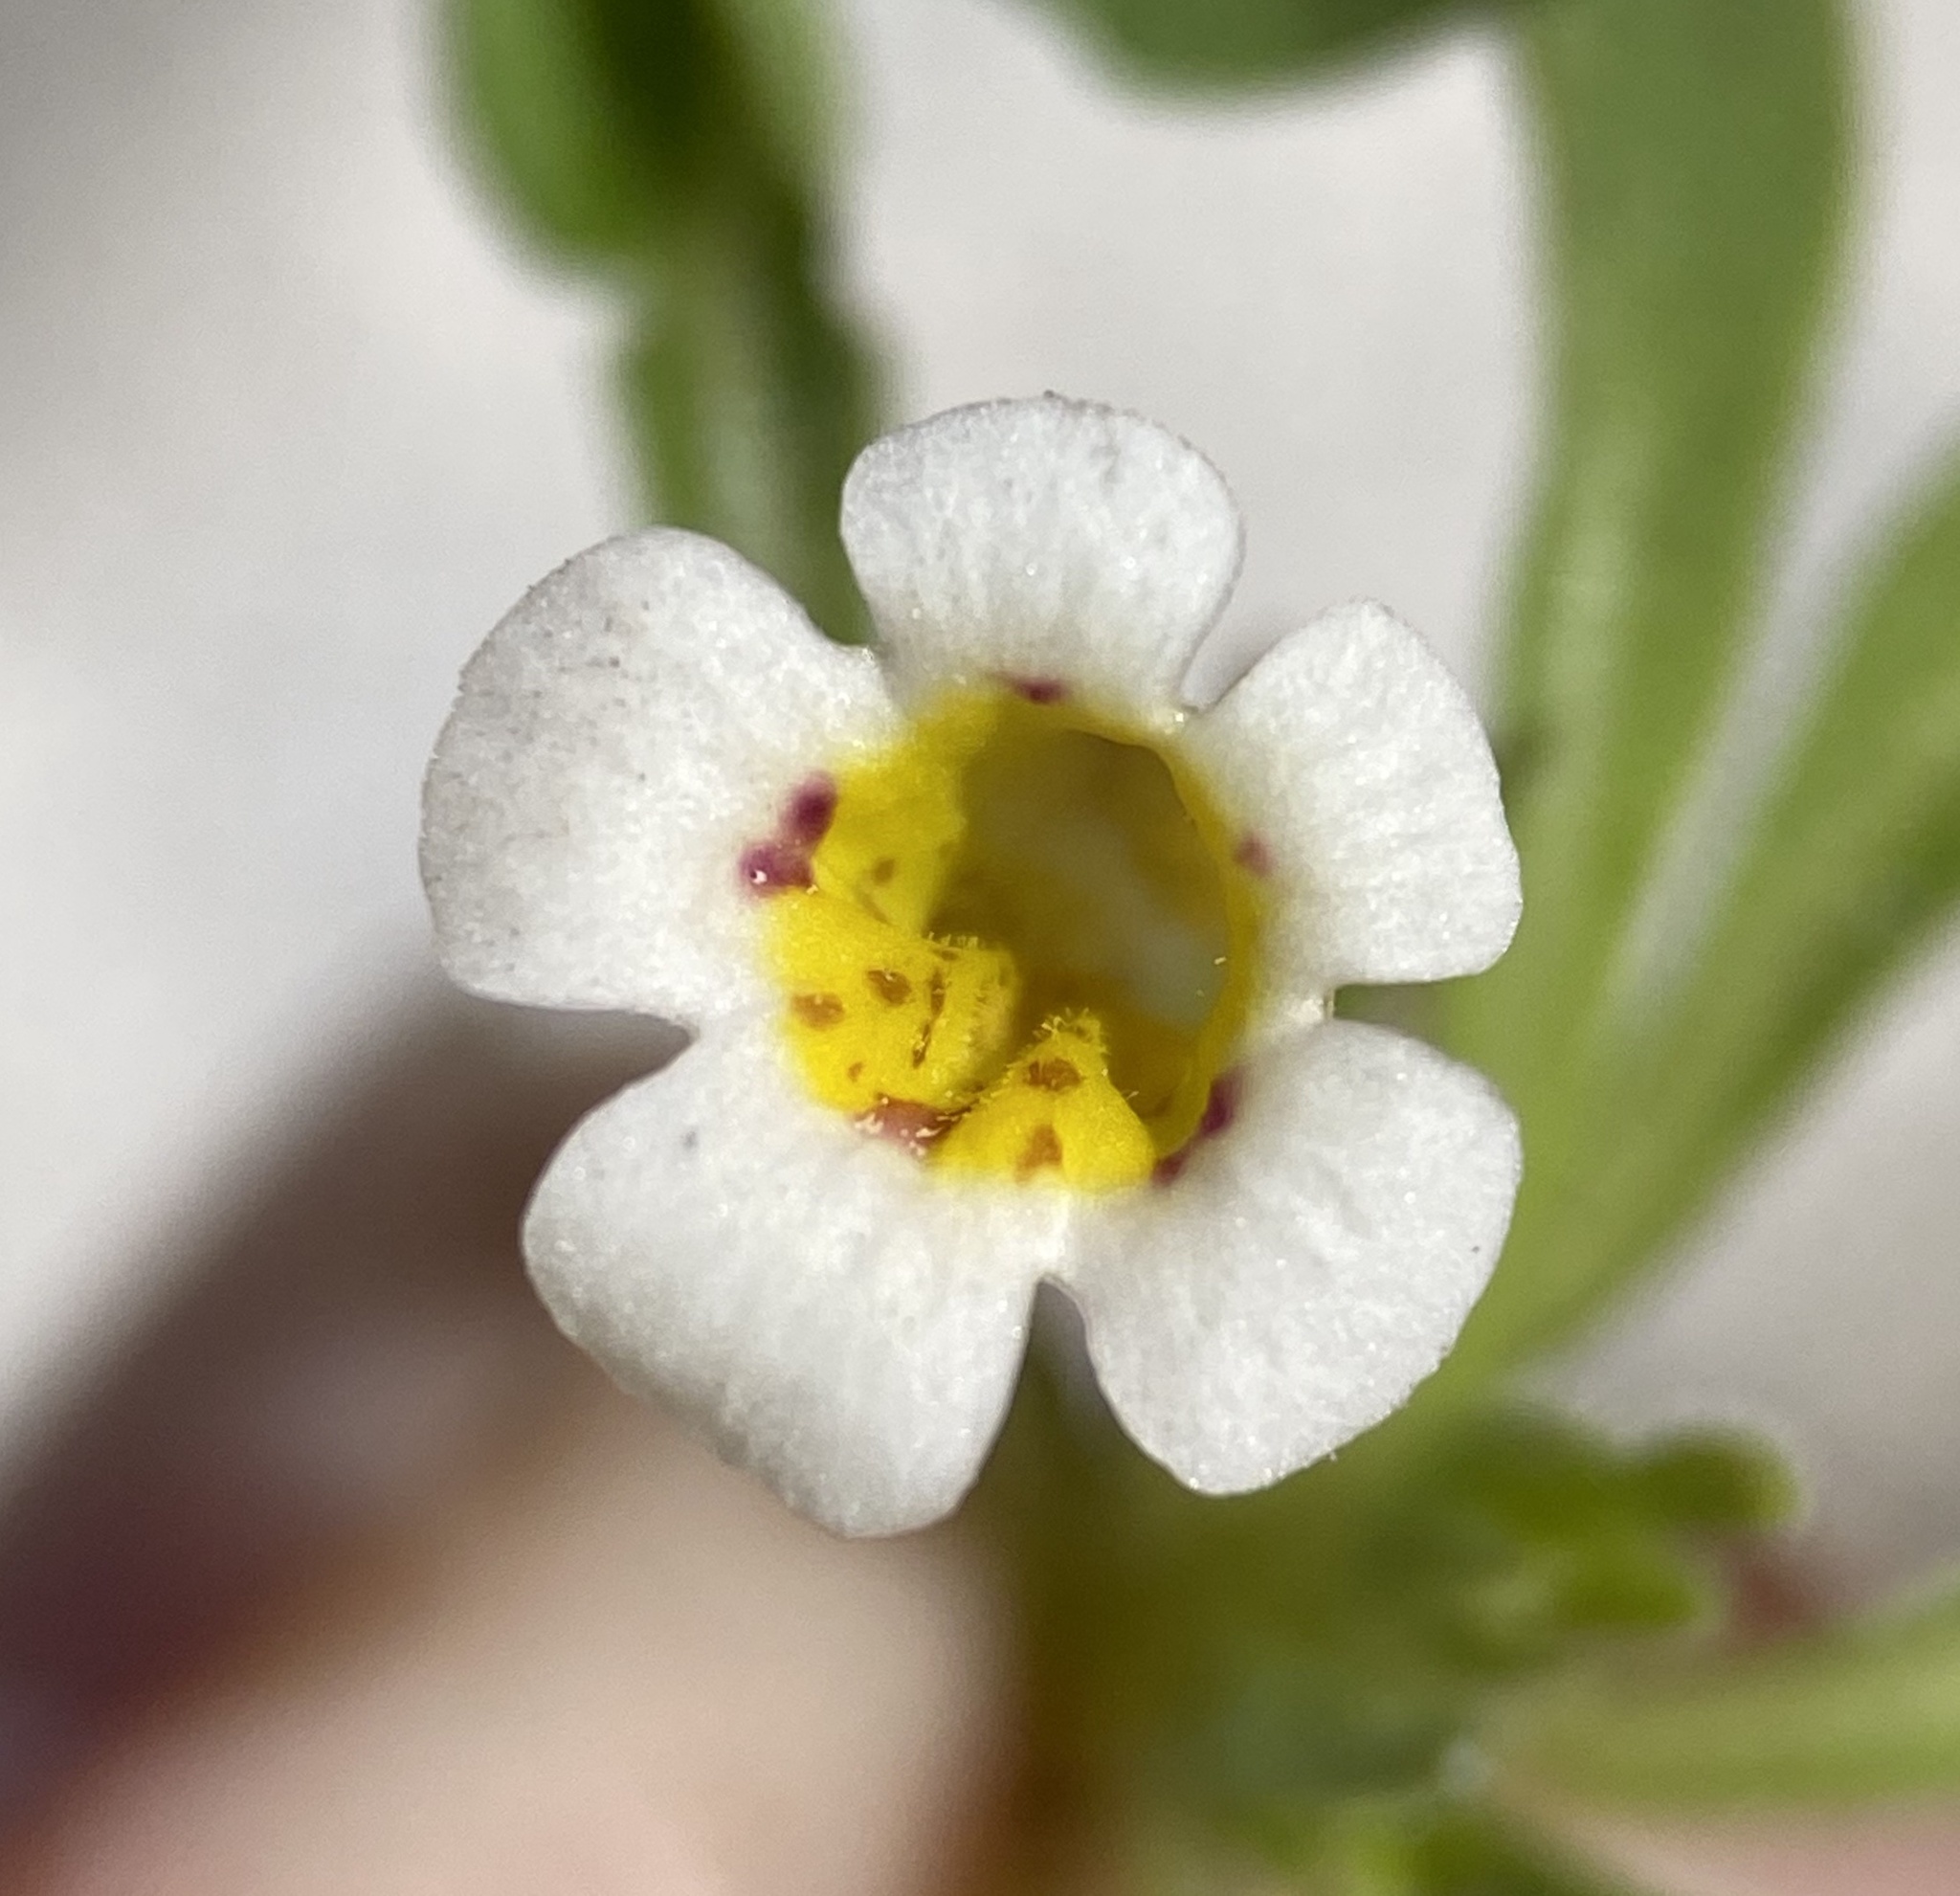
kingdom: Plantae
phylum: Tracheophyta
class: Magnoliopsida
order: Lamiales
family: Phrymaceae
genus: Diplacus
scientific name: Diplacus rupicola
